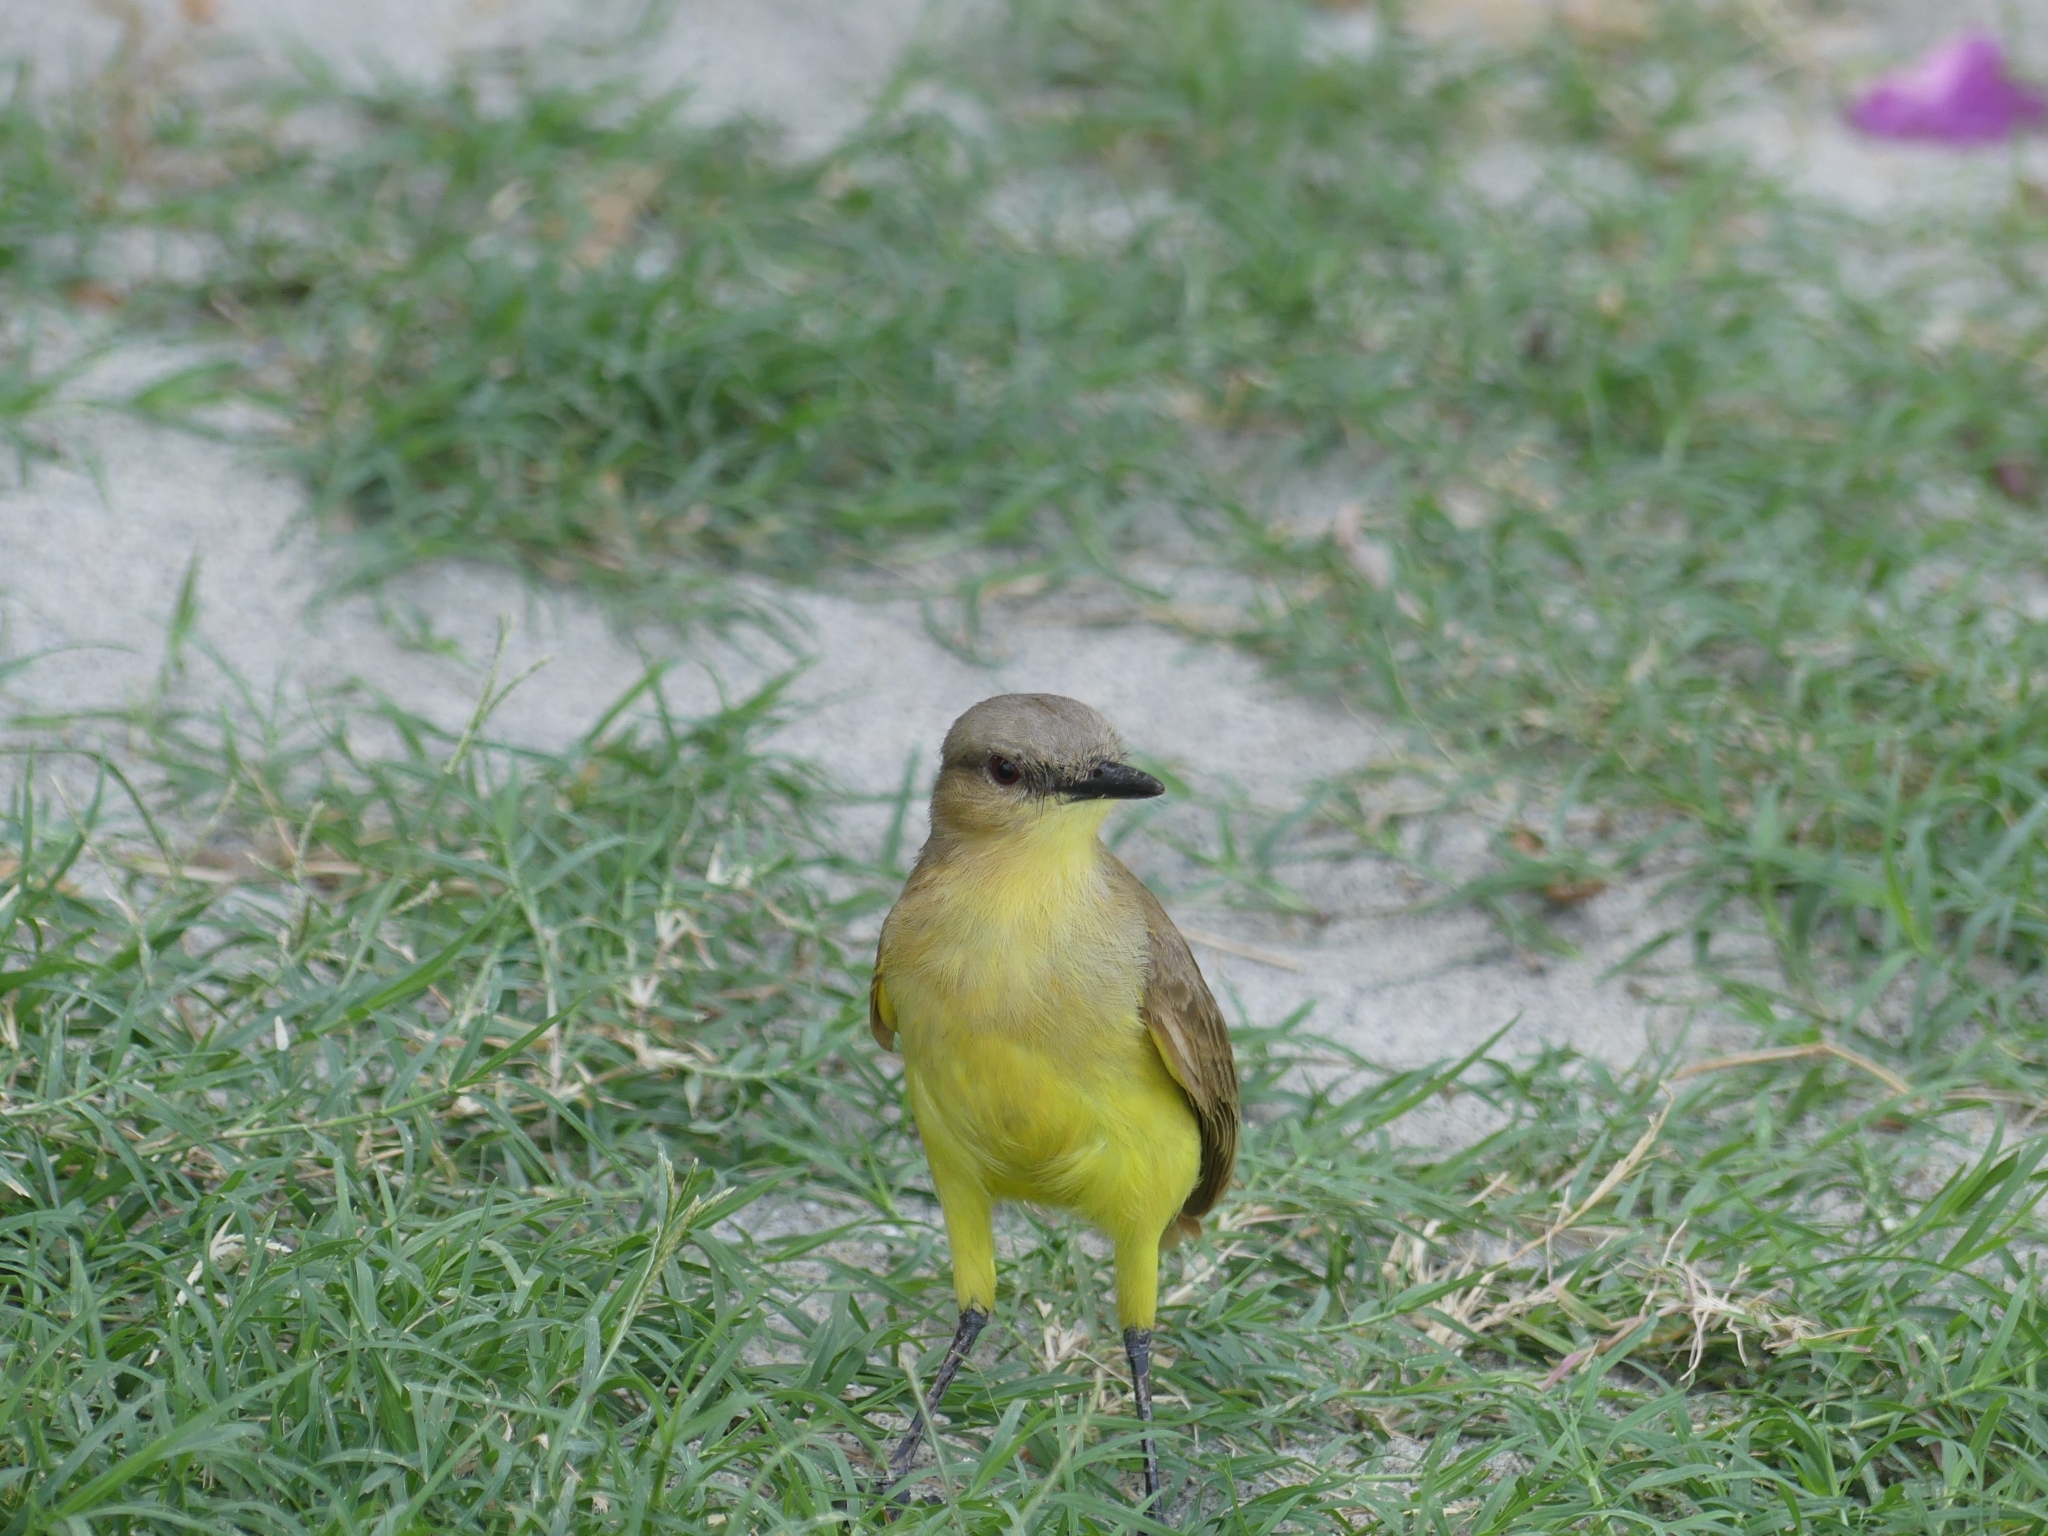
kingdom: Animalia
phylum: Chordata
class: Aves
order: Passeriformes
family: Tyrannidae
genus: Machetornis
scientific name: Machetornis rixosa
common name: Cattle tyrant
